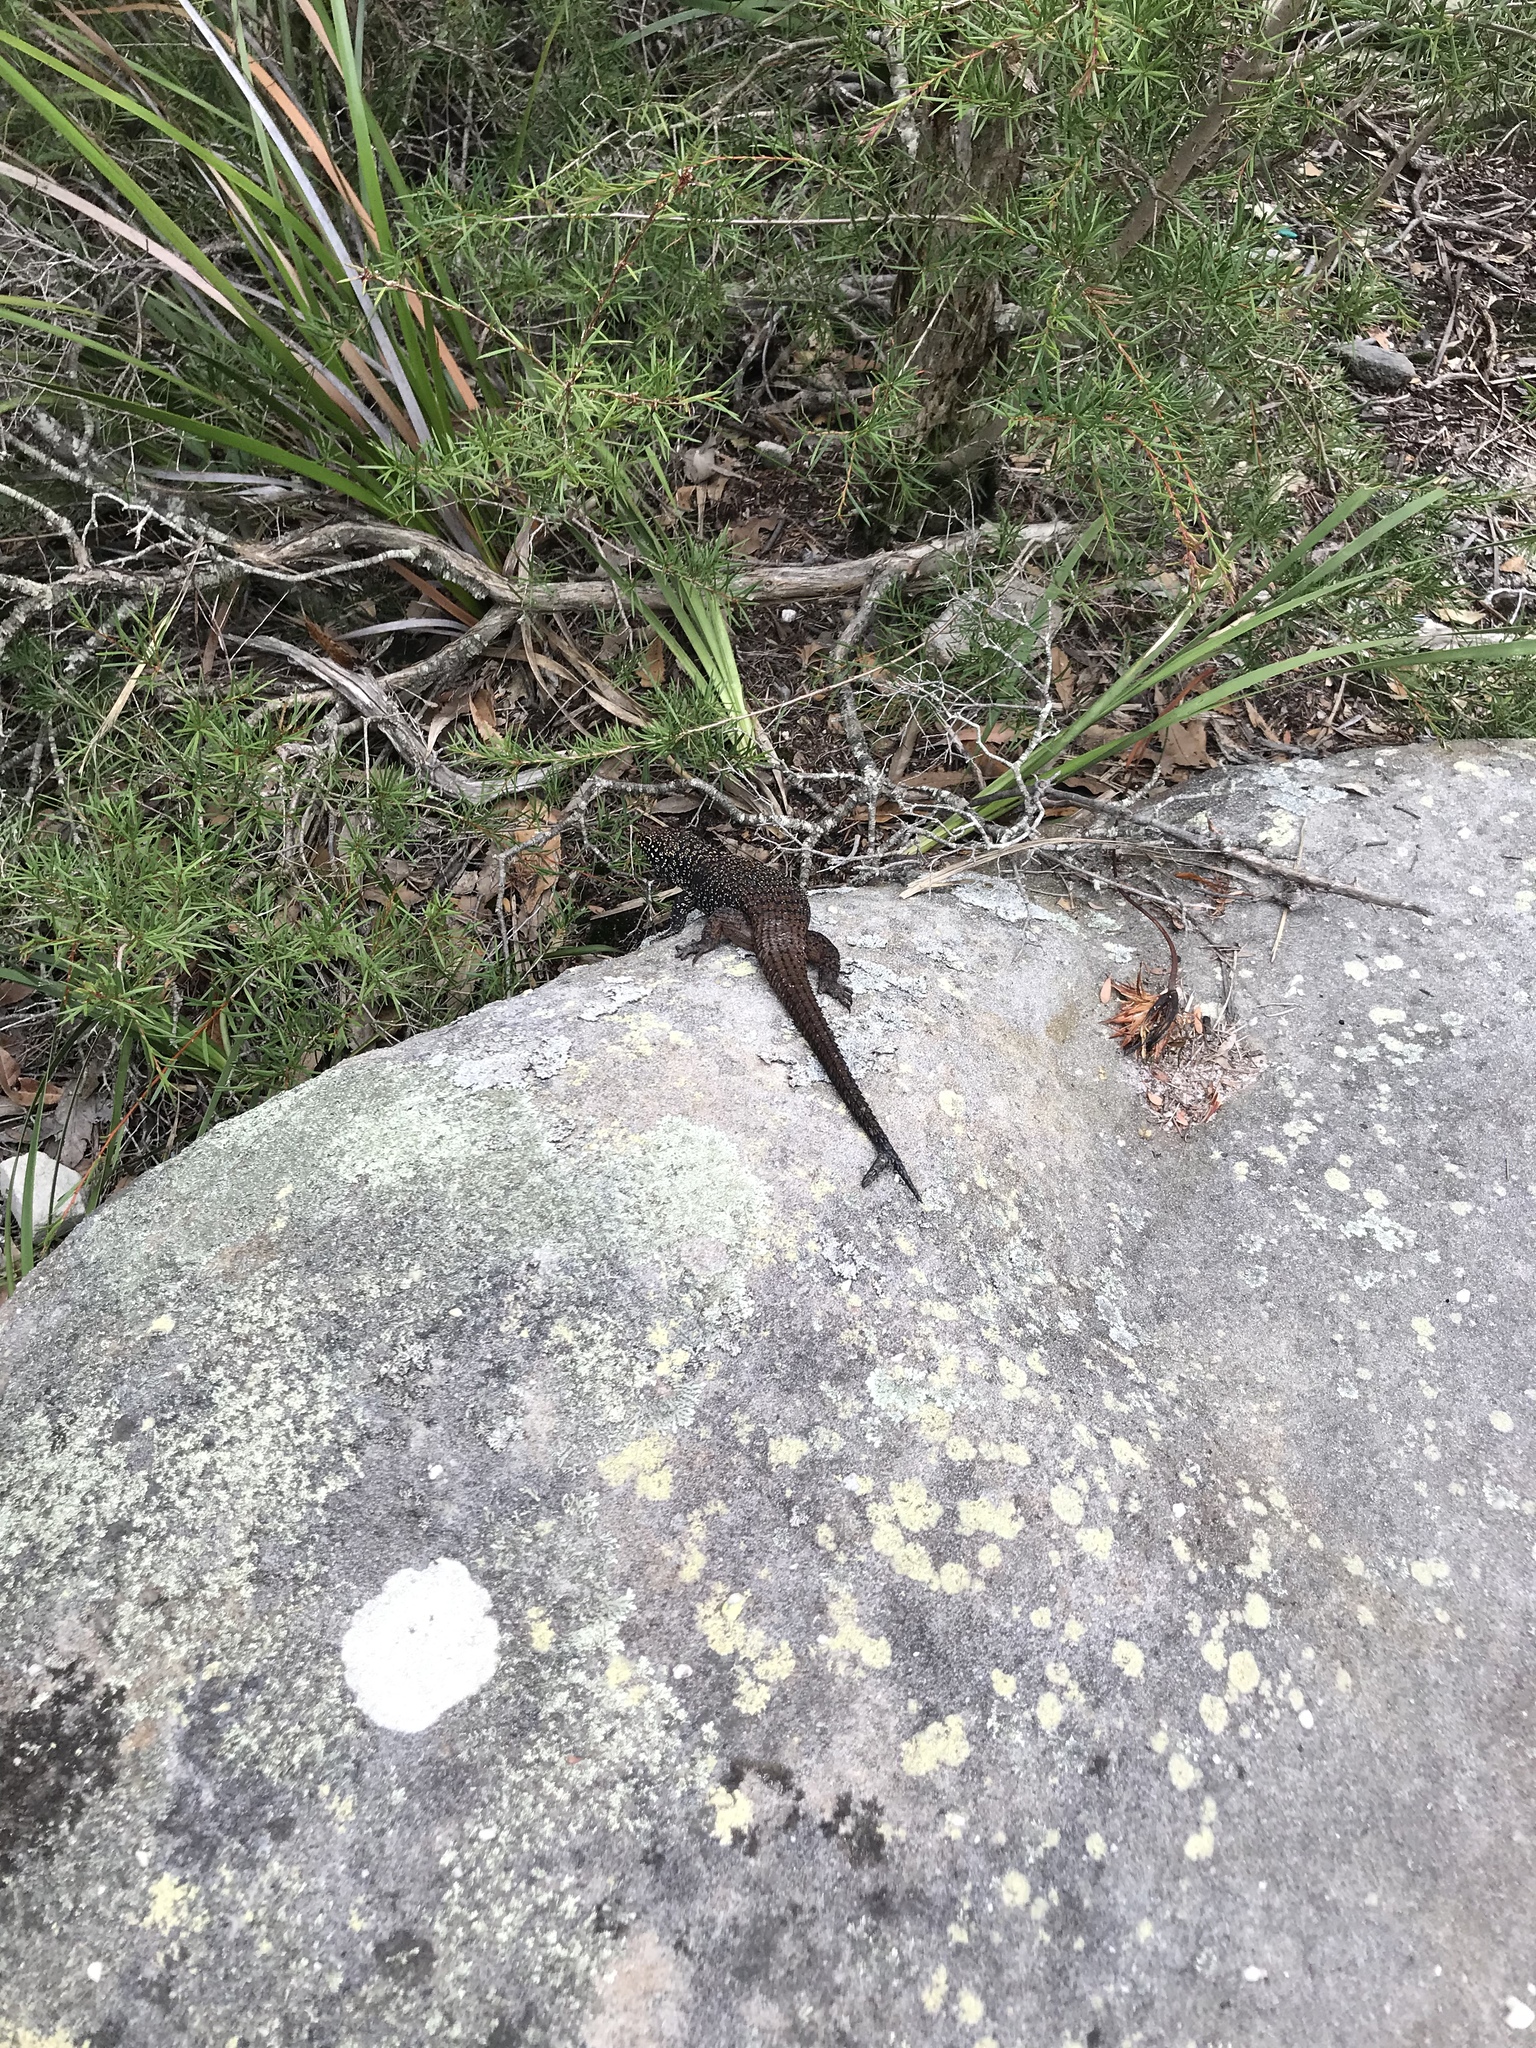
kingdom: Animalia
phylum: Chordata
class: Squamata
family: Scincidae
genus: Egernia
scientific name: Egernia cunninghami
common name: Cunningham's skink
